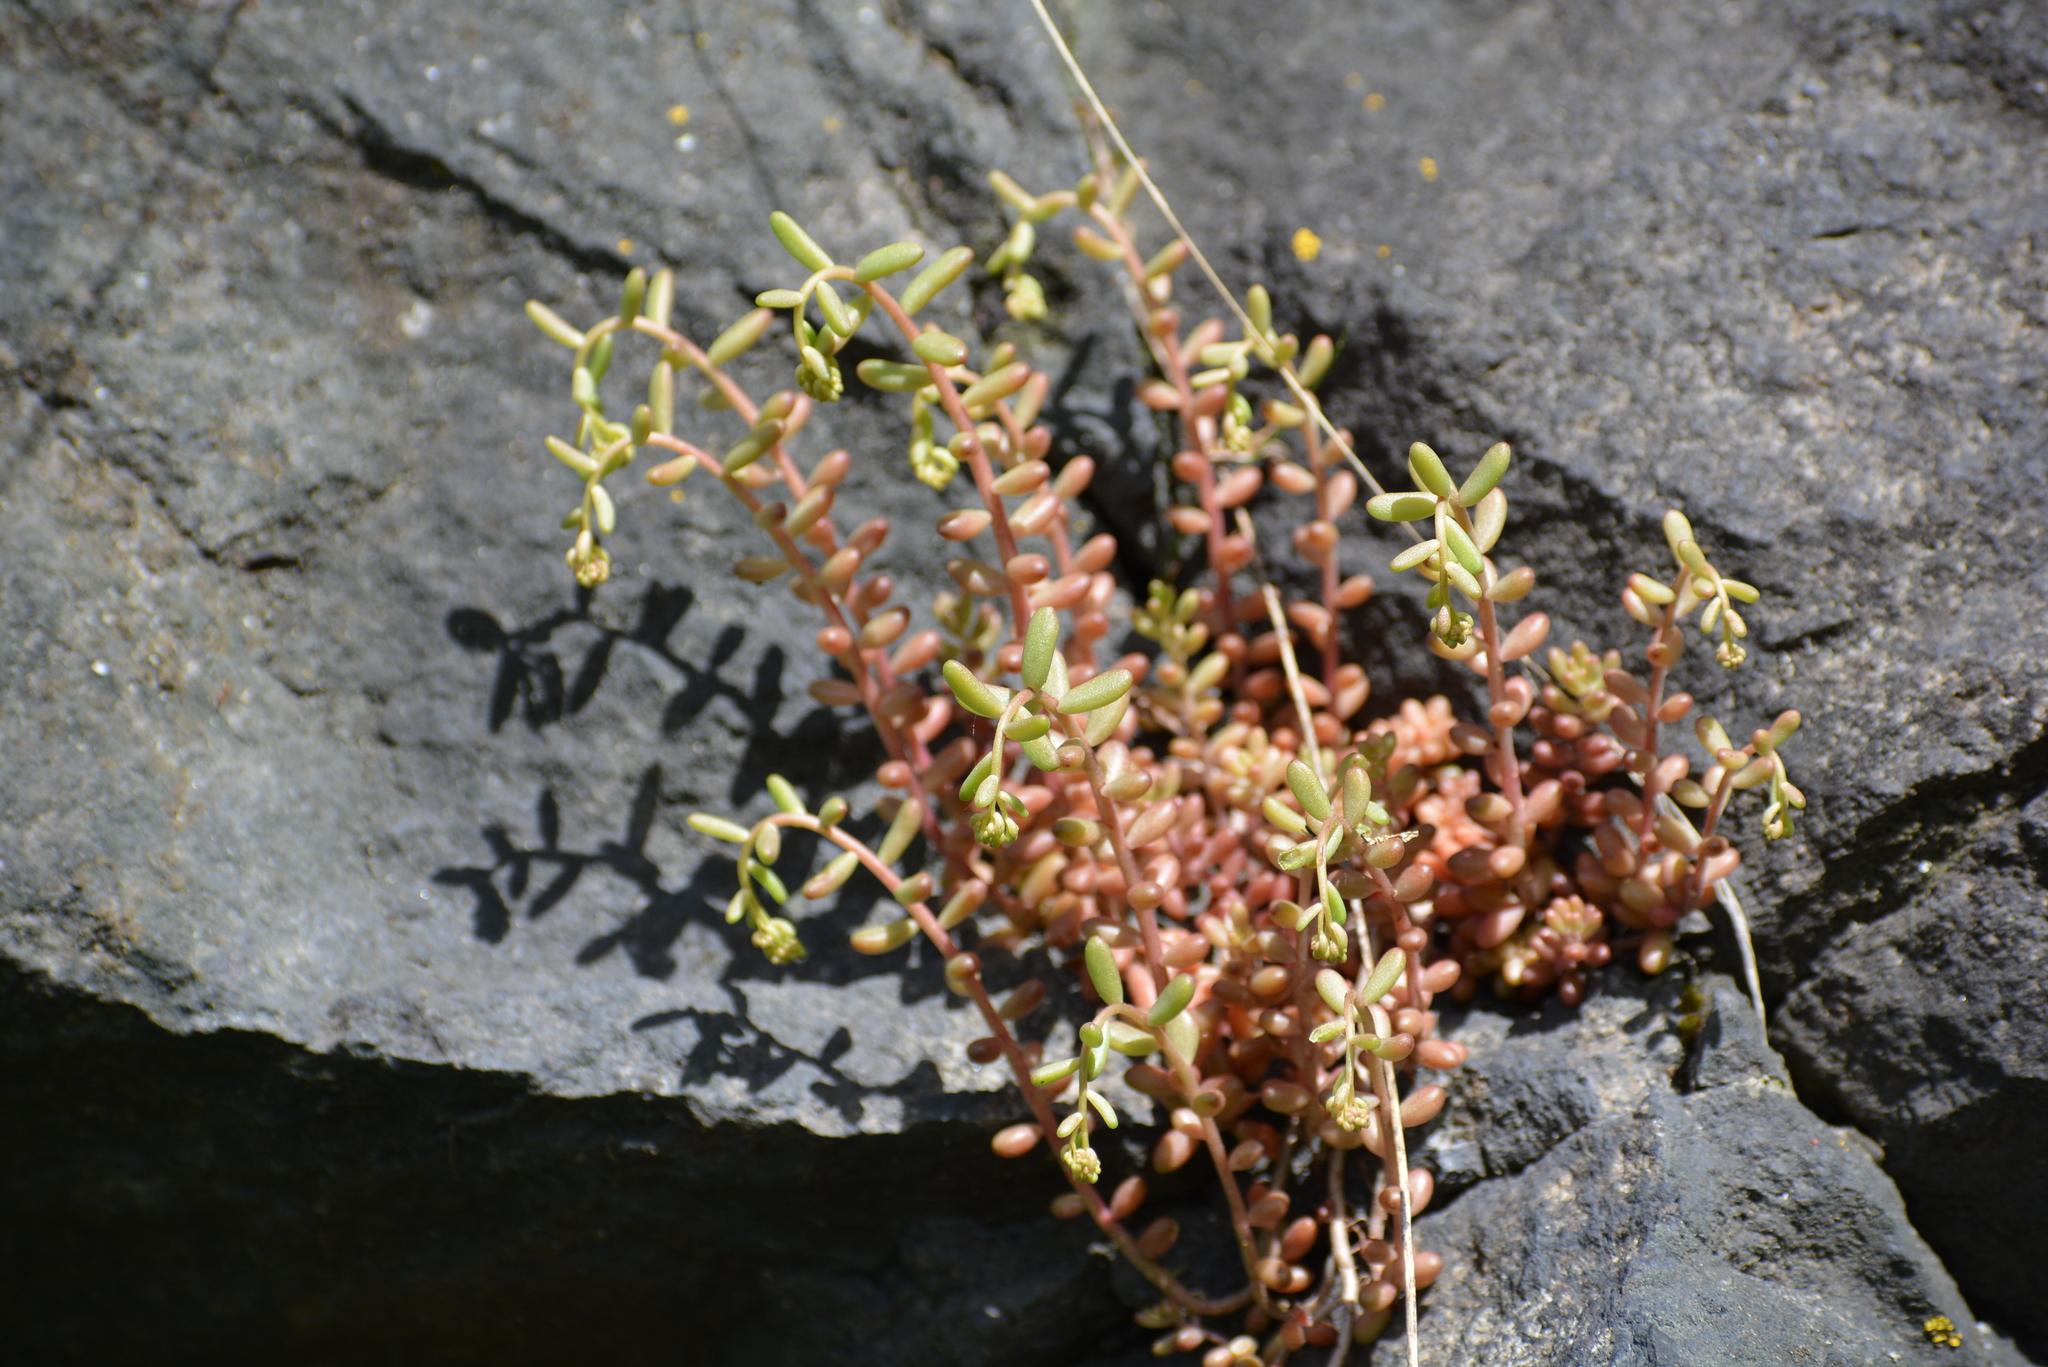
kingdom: Plantae
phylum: Tracheophyta
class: Magnoliopsida
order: Saxifragales
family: Crassulaceae
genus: Sedum
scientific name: Sedum album
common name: White stonecrop
